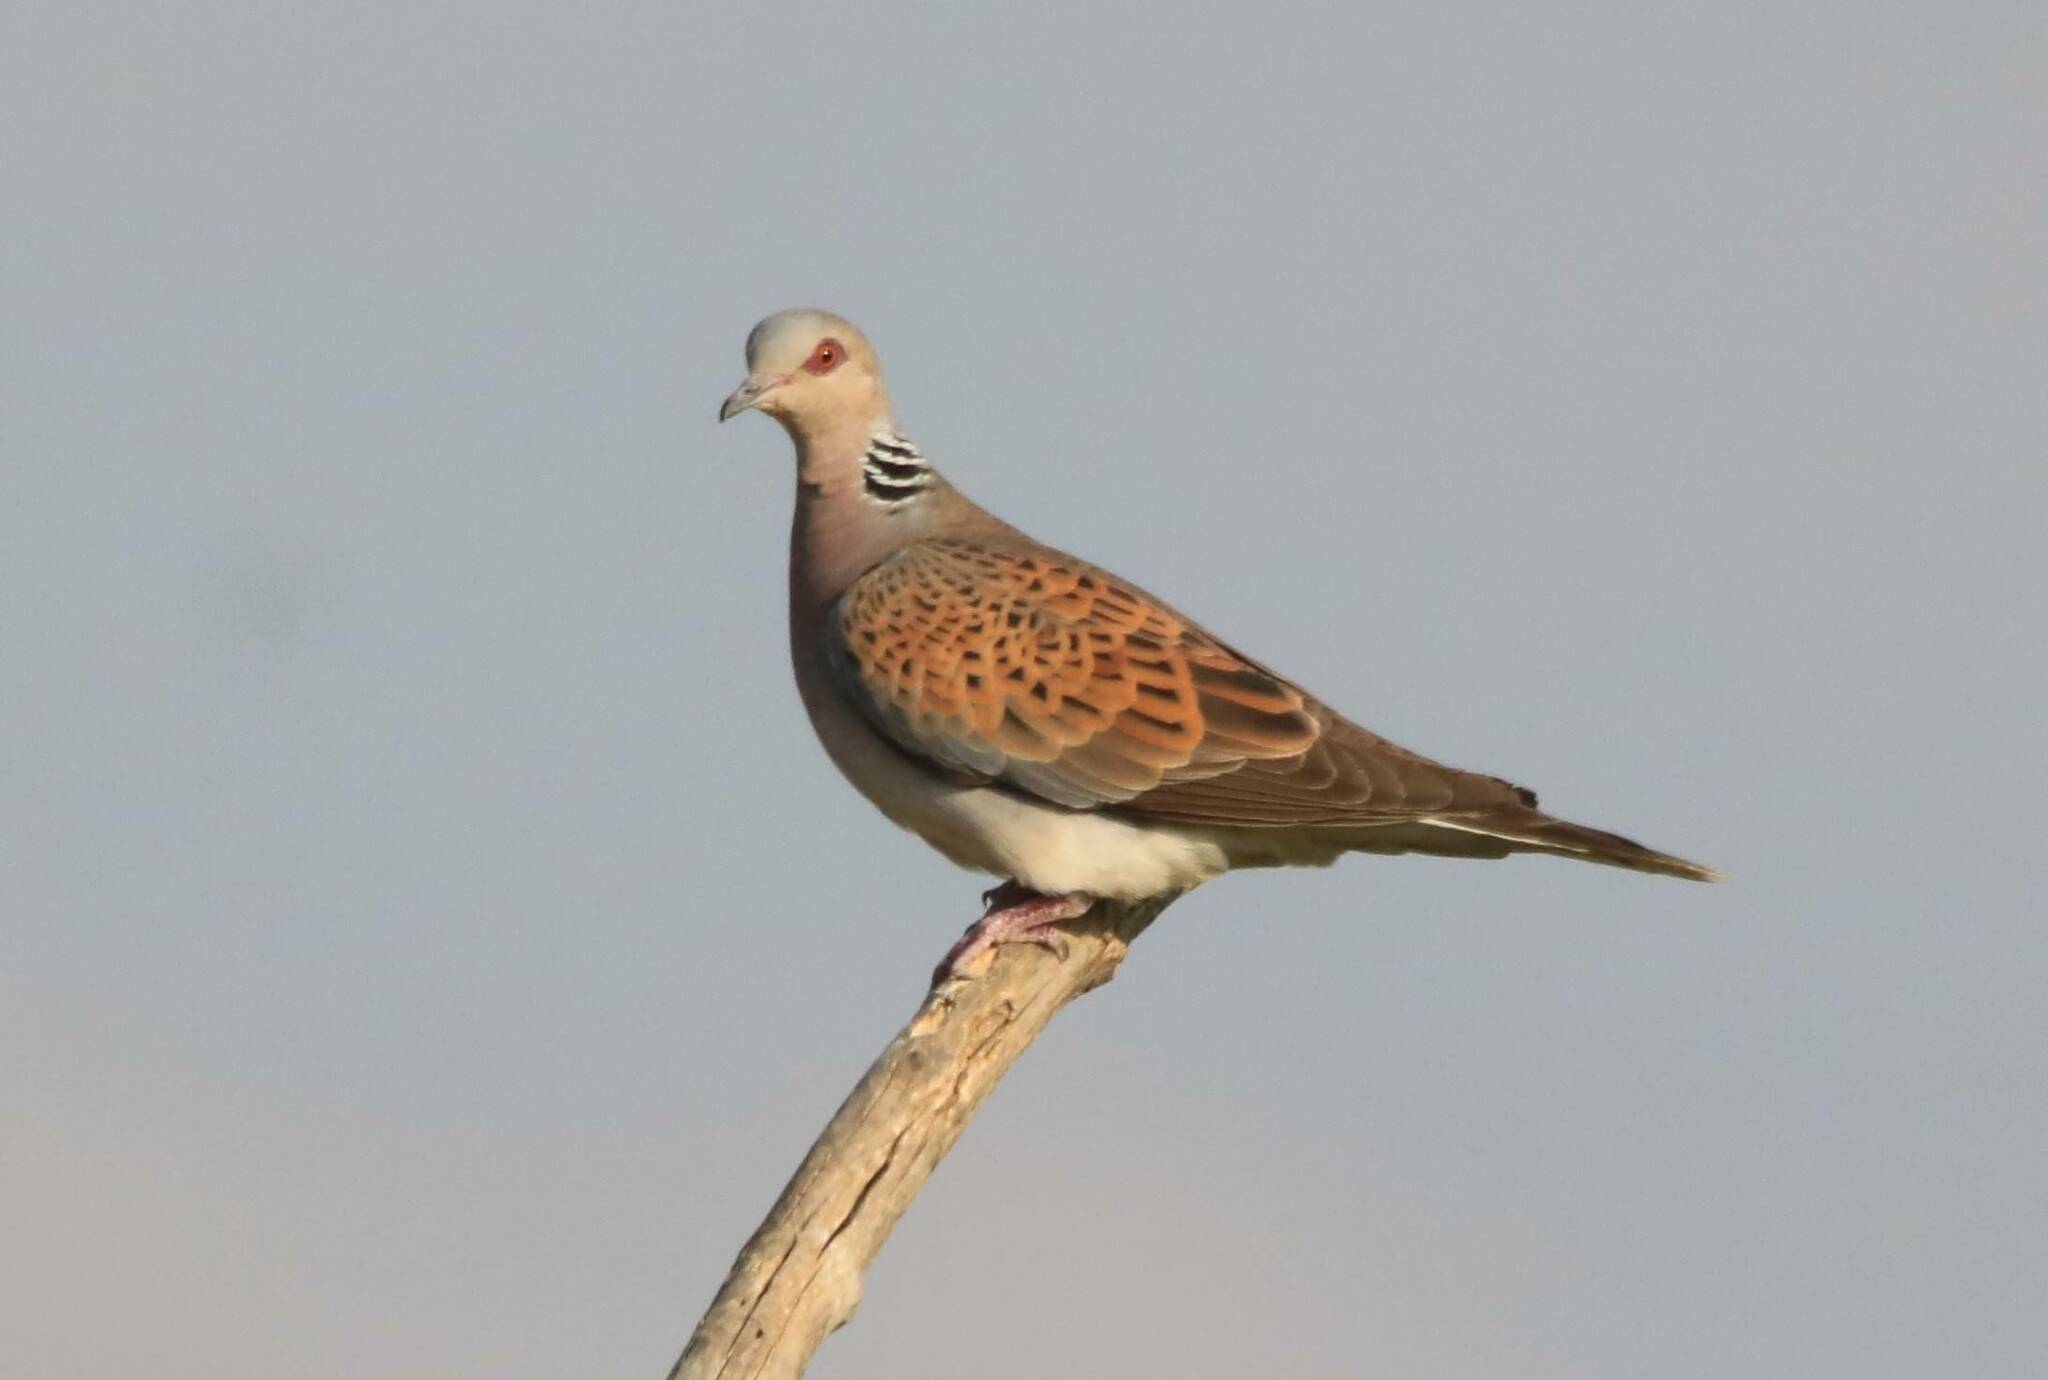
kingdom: Animalia
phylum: Chordata
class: Aves
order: Columbiformes
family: Columbidae
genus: Streptopelia
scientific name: Streptopelia turtur
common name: European turtle dove
